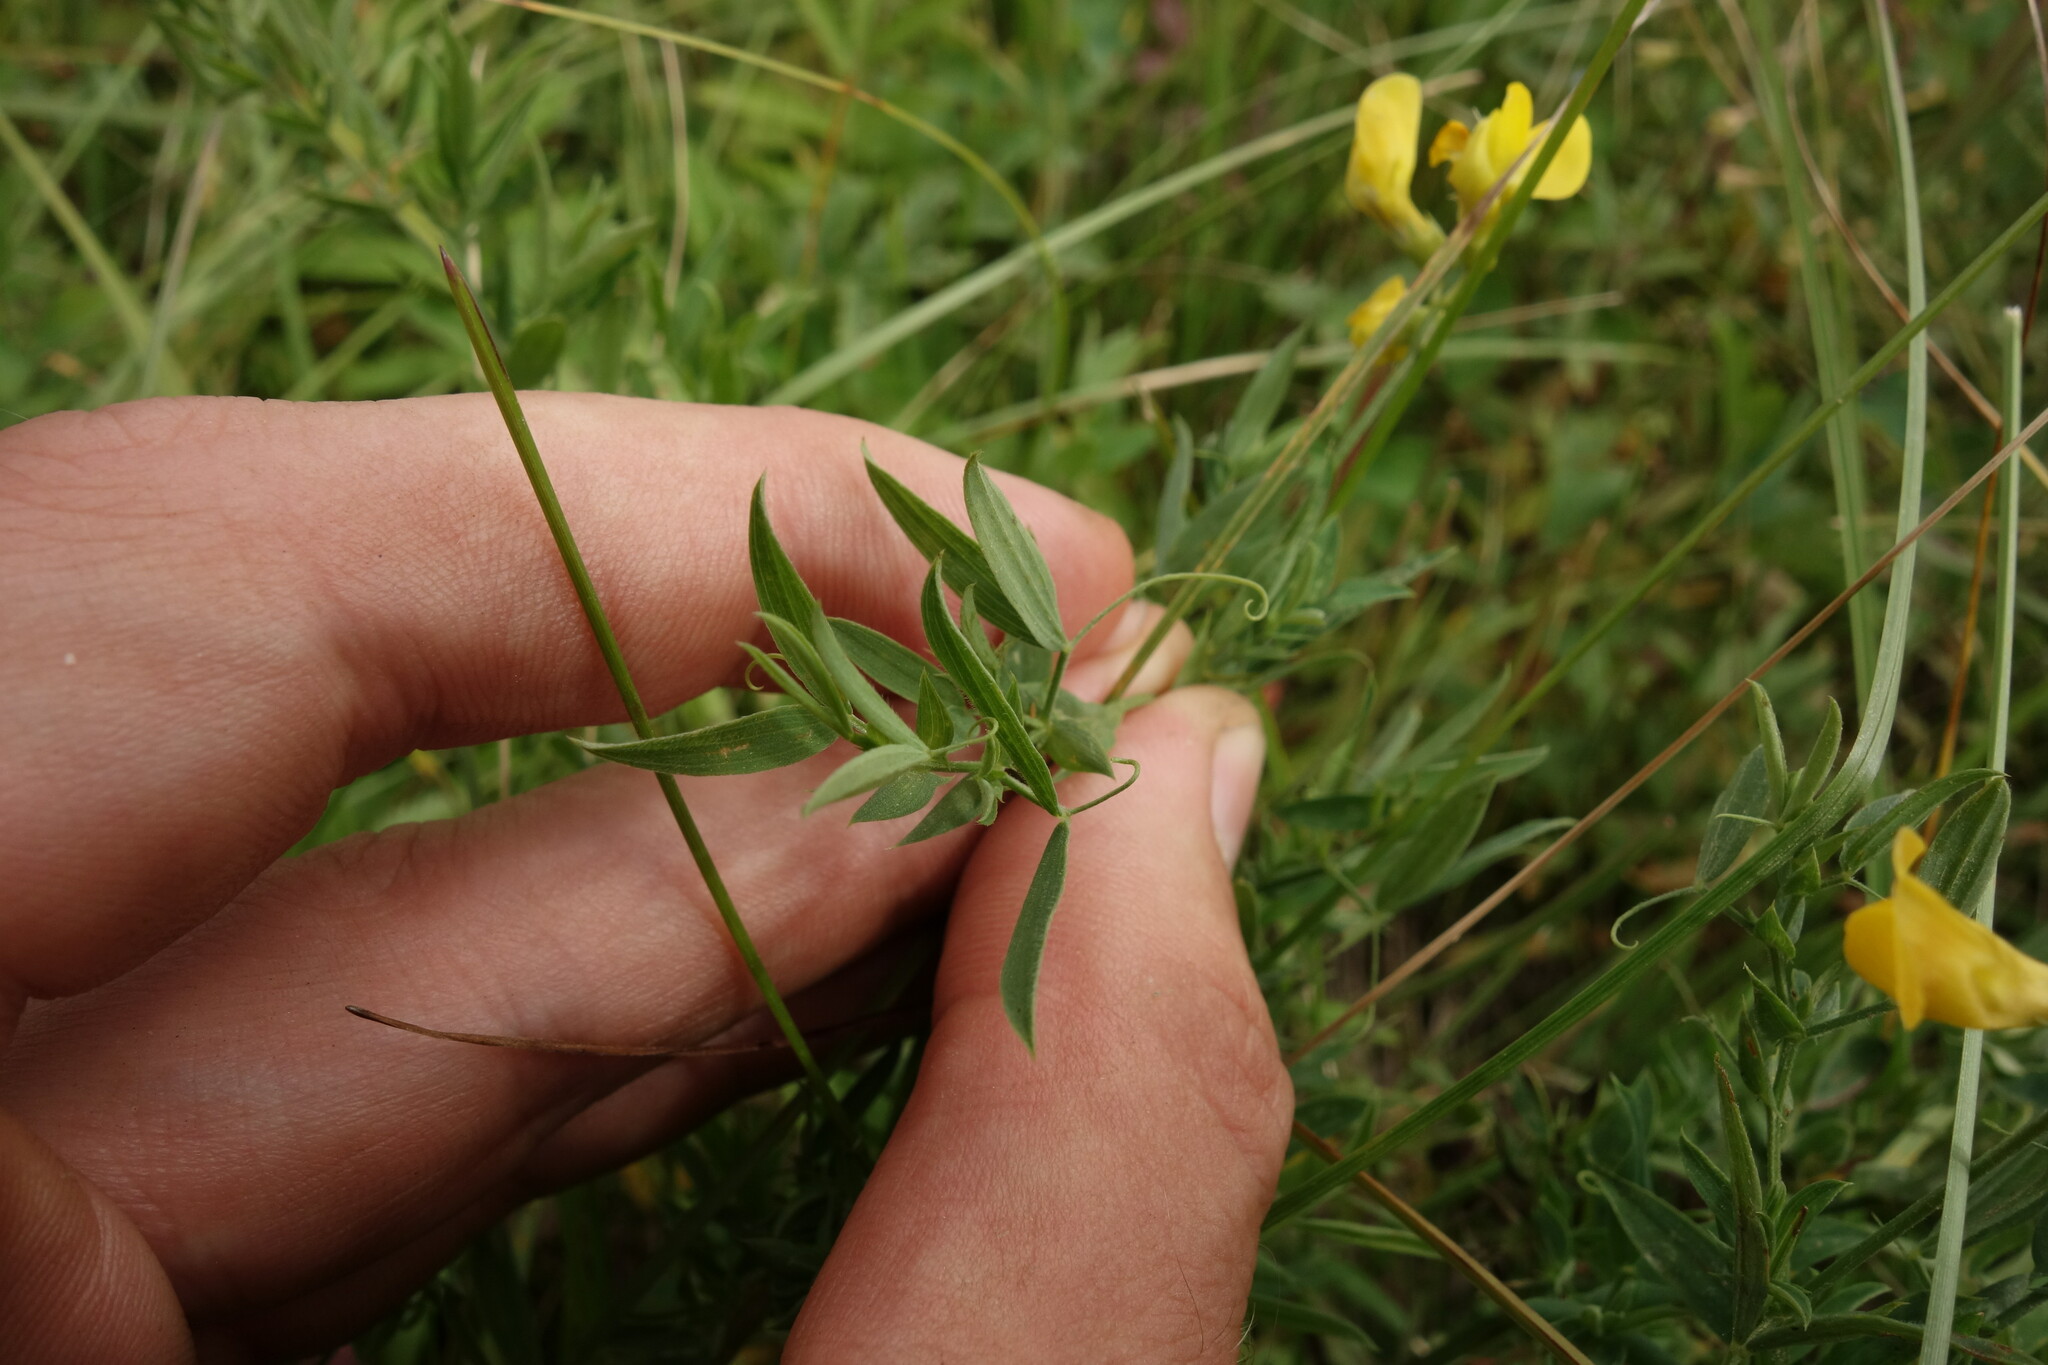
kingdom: Plantae
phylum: Tracheophyta
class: Magnoliopsida
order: Fabales
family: Fabaceae
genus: Lathyrus
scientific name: Lathyrus pratensis
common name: Meadow vetchling
